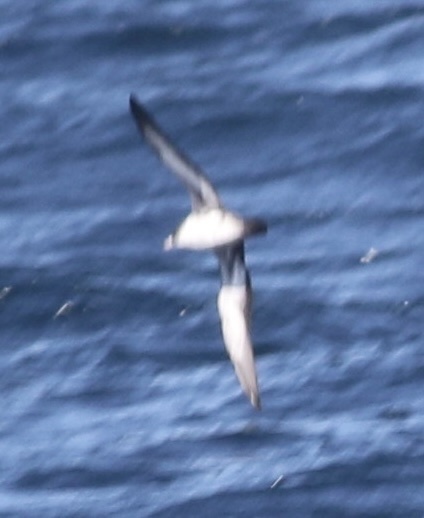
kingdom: Animalia
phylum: Chordata
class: Aves
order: Procellariiformes
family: Procellariidae
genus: Puffinus
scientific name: Puffinus creatopus
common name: Pink-footed shearwater
